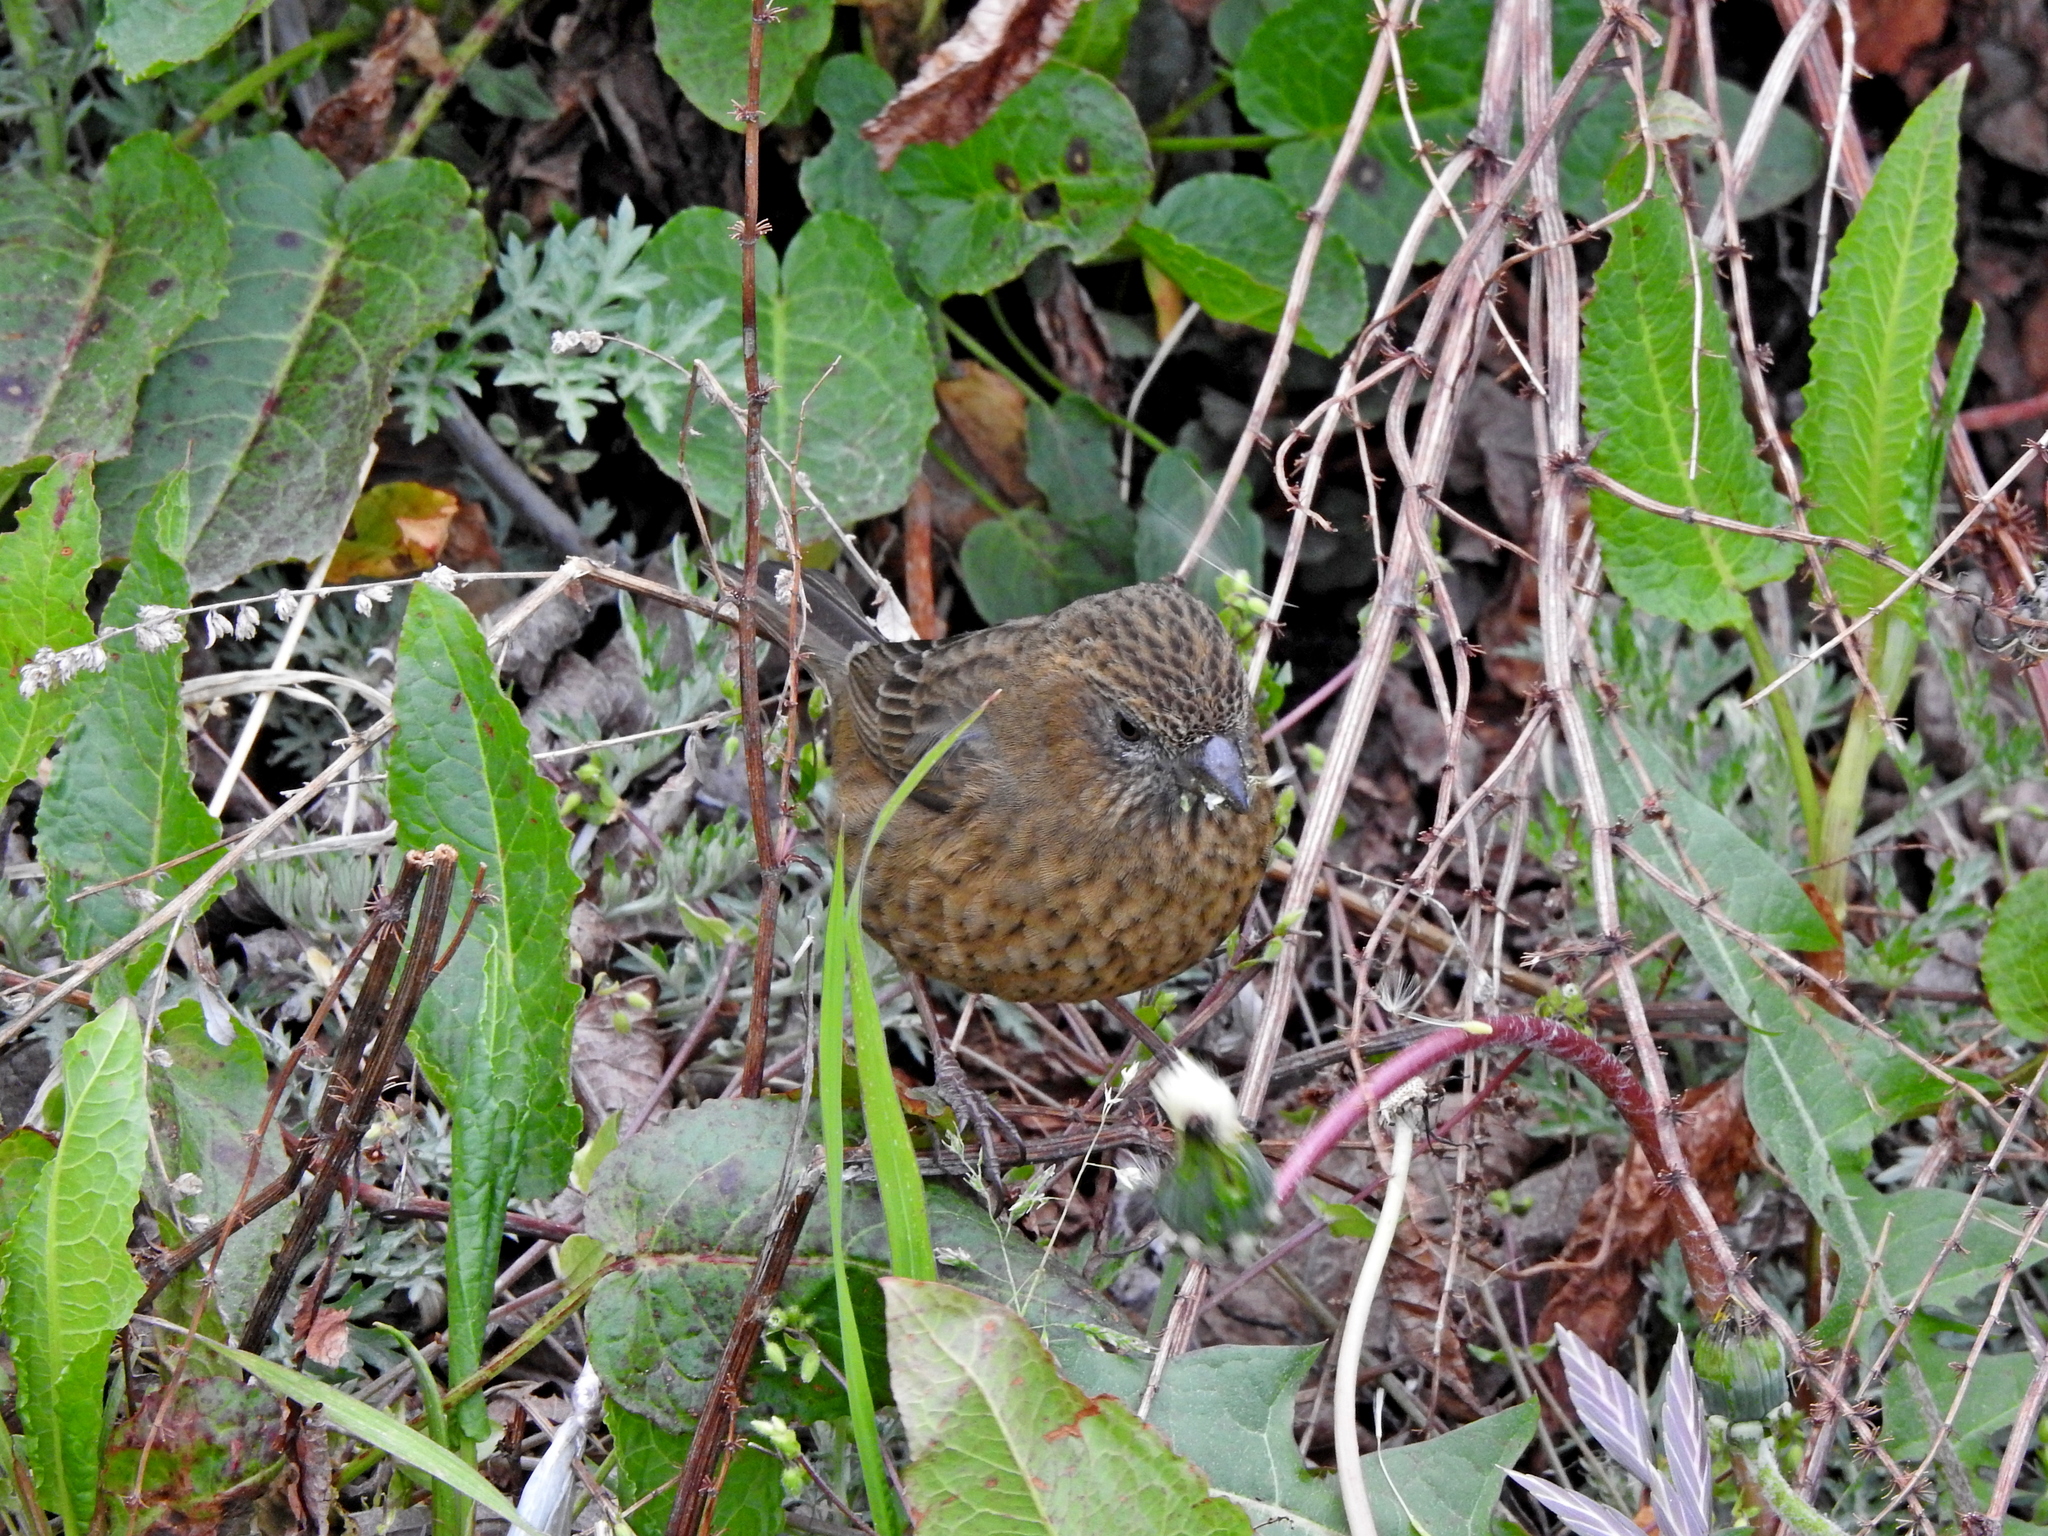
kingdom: Animalia
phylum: Chordata
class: Aves
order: Passeriformes
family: Fringillidae
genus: Carpodacus
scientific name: Carpodacus formosanus
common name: Taiwan rosefinch
